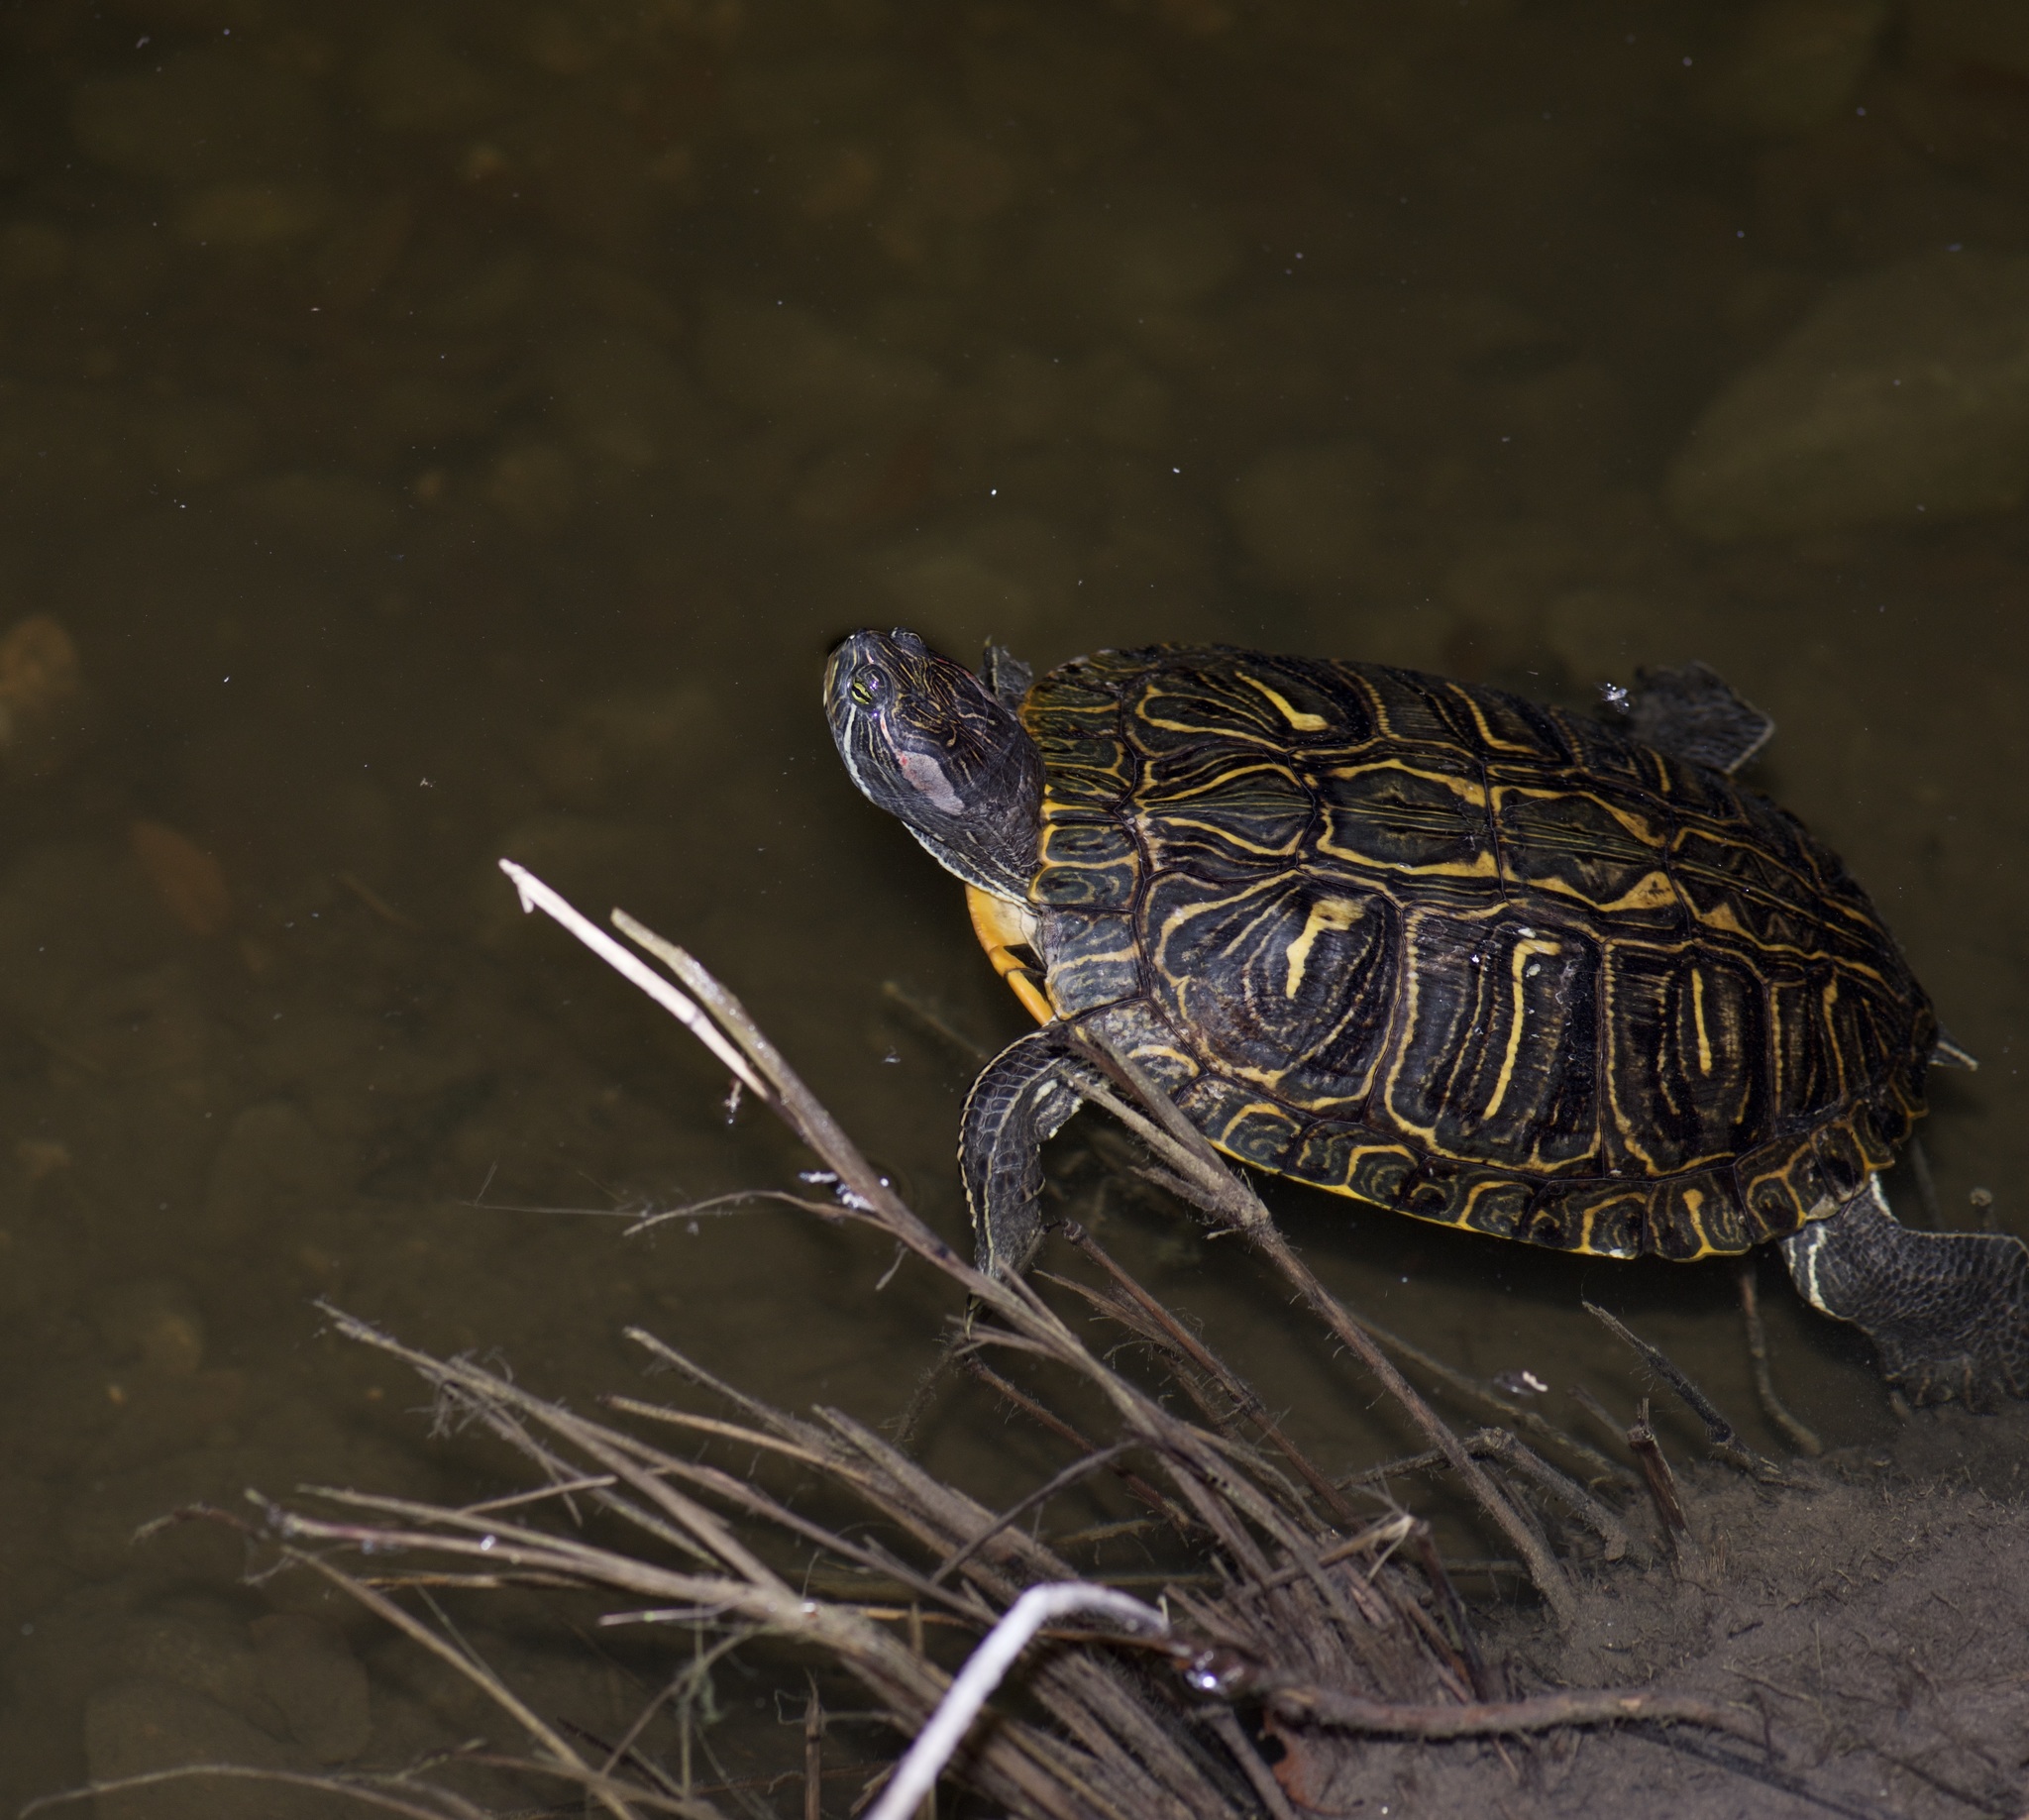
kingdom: Animalia
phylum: Chordata
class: Testudines
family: Emydidae
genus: Trachemys
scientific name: Trachemys scripta
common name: Slider
